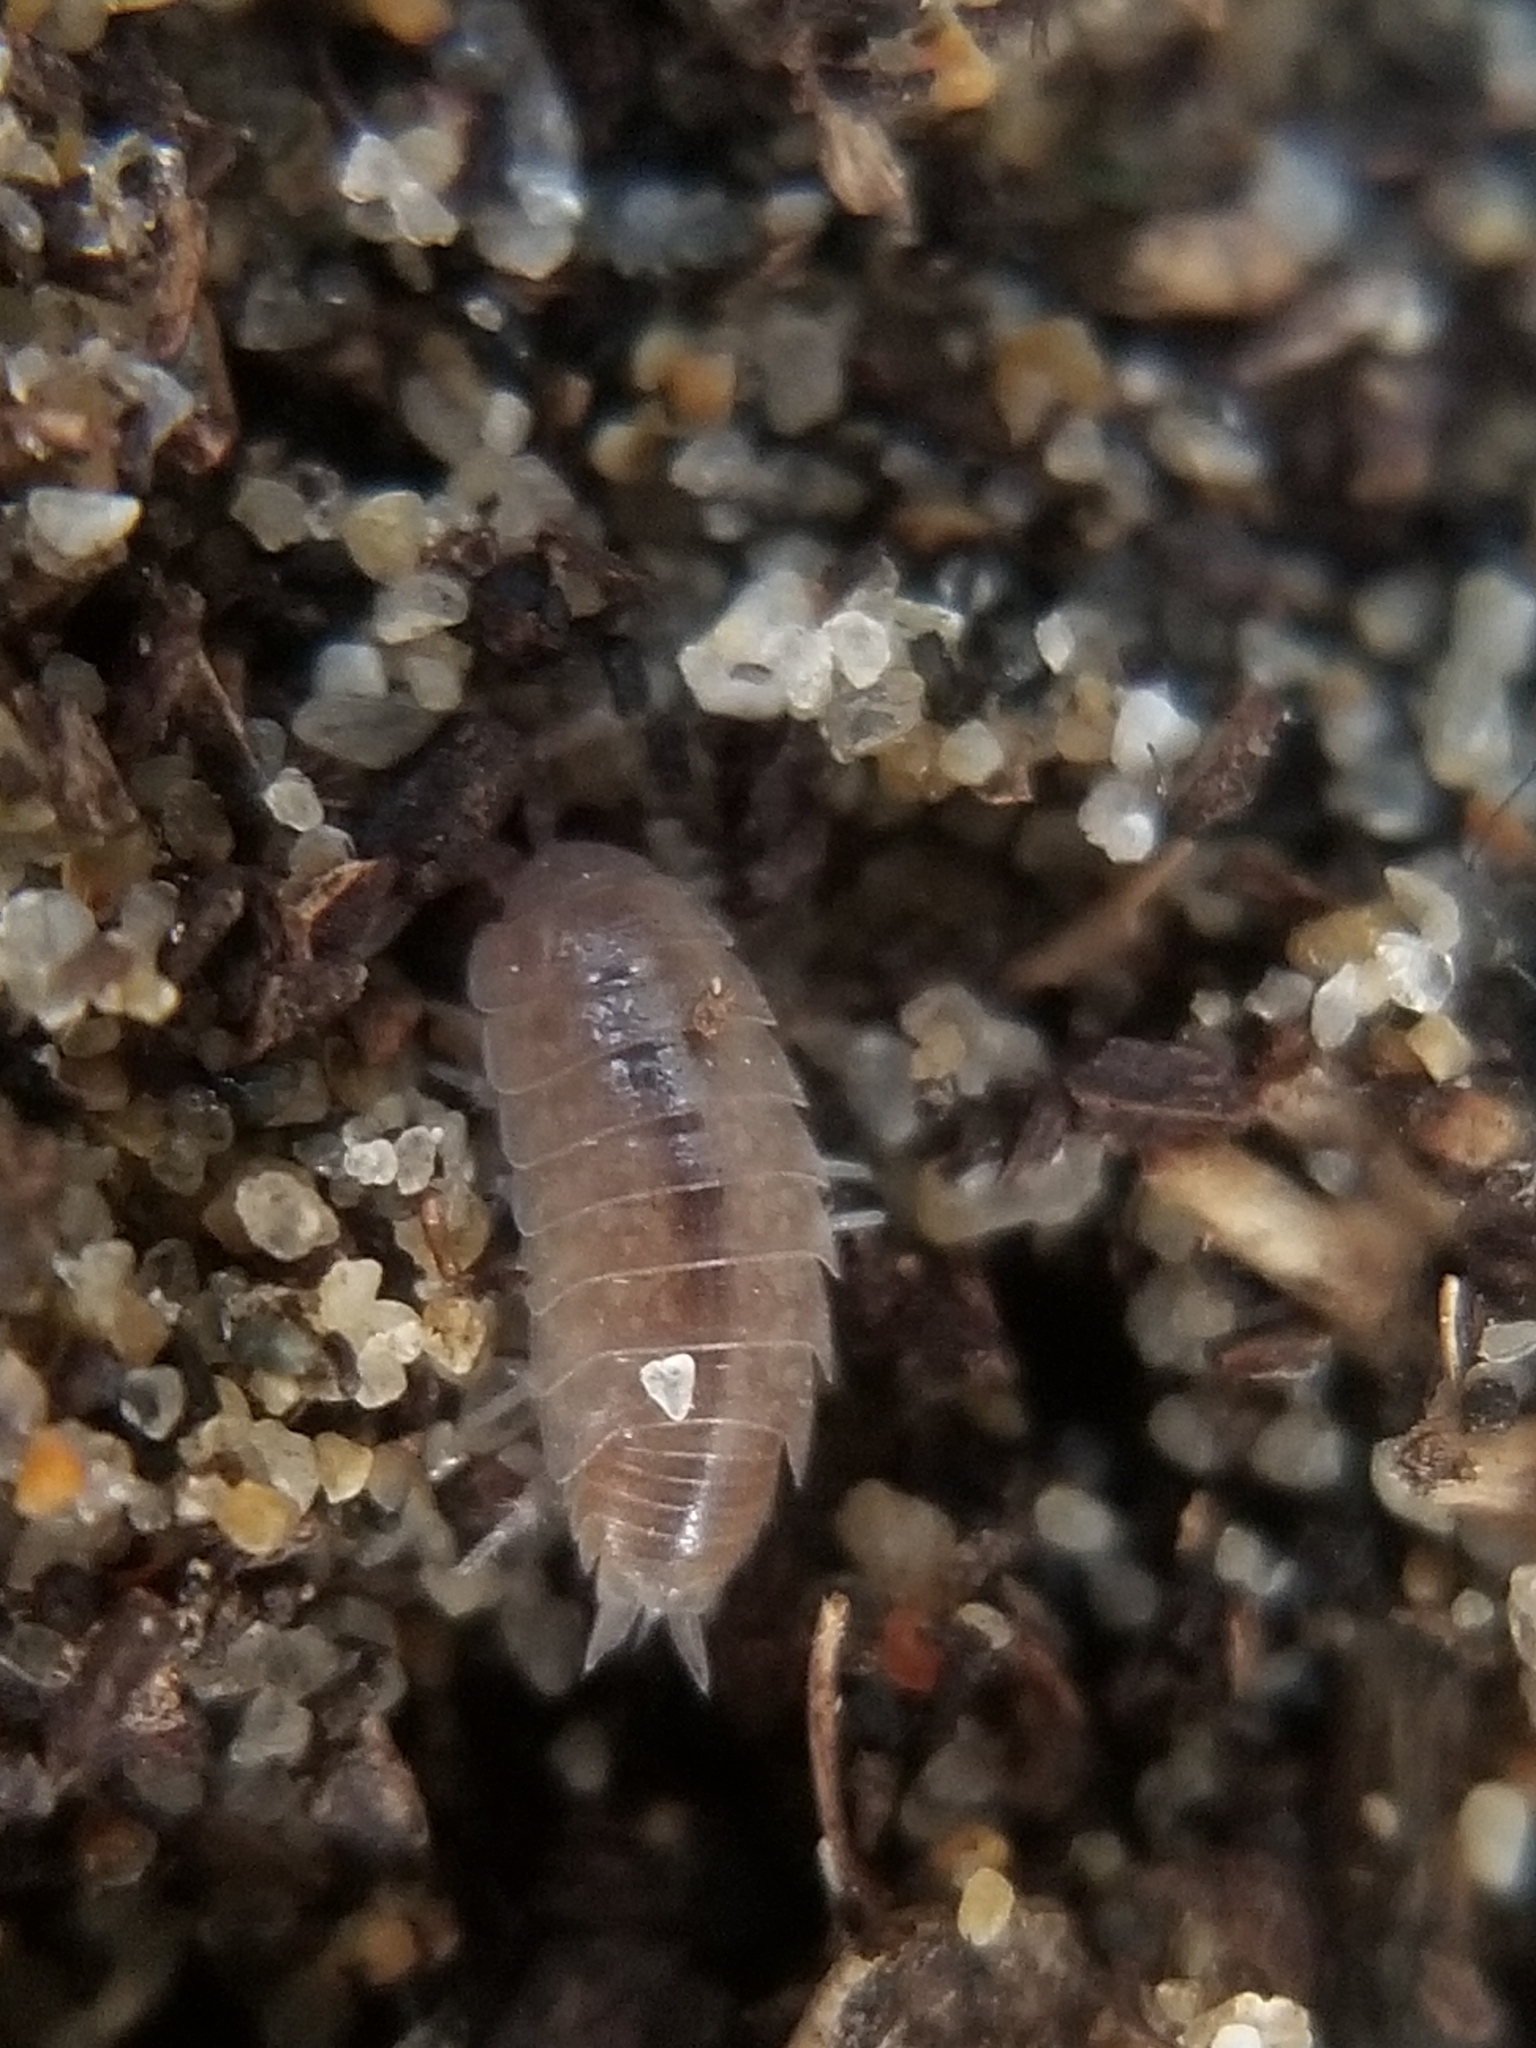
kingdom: Animalia
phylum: Arthropoda
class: Malacostraca
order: Isopoda
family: Platyarthridae
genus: Niambia
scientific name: Niambia capensis
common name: Isopod
